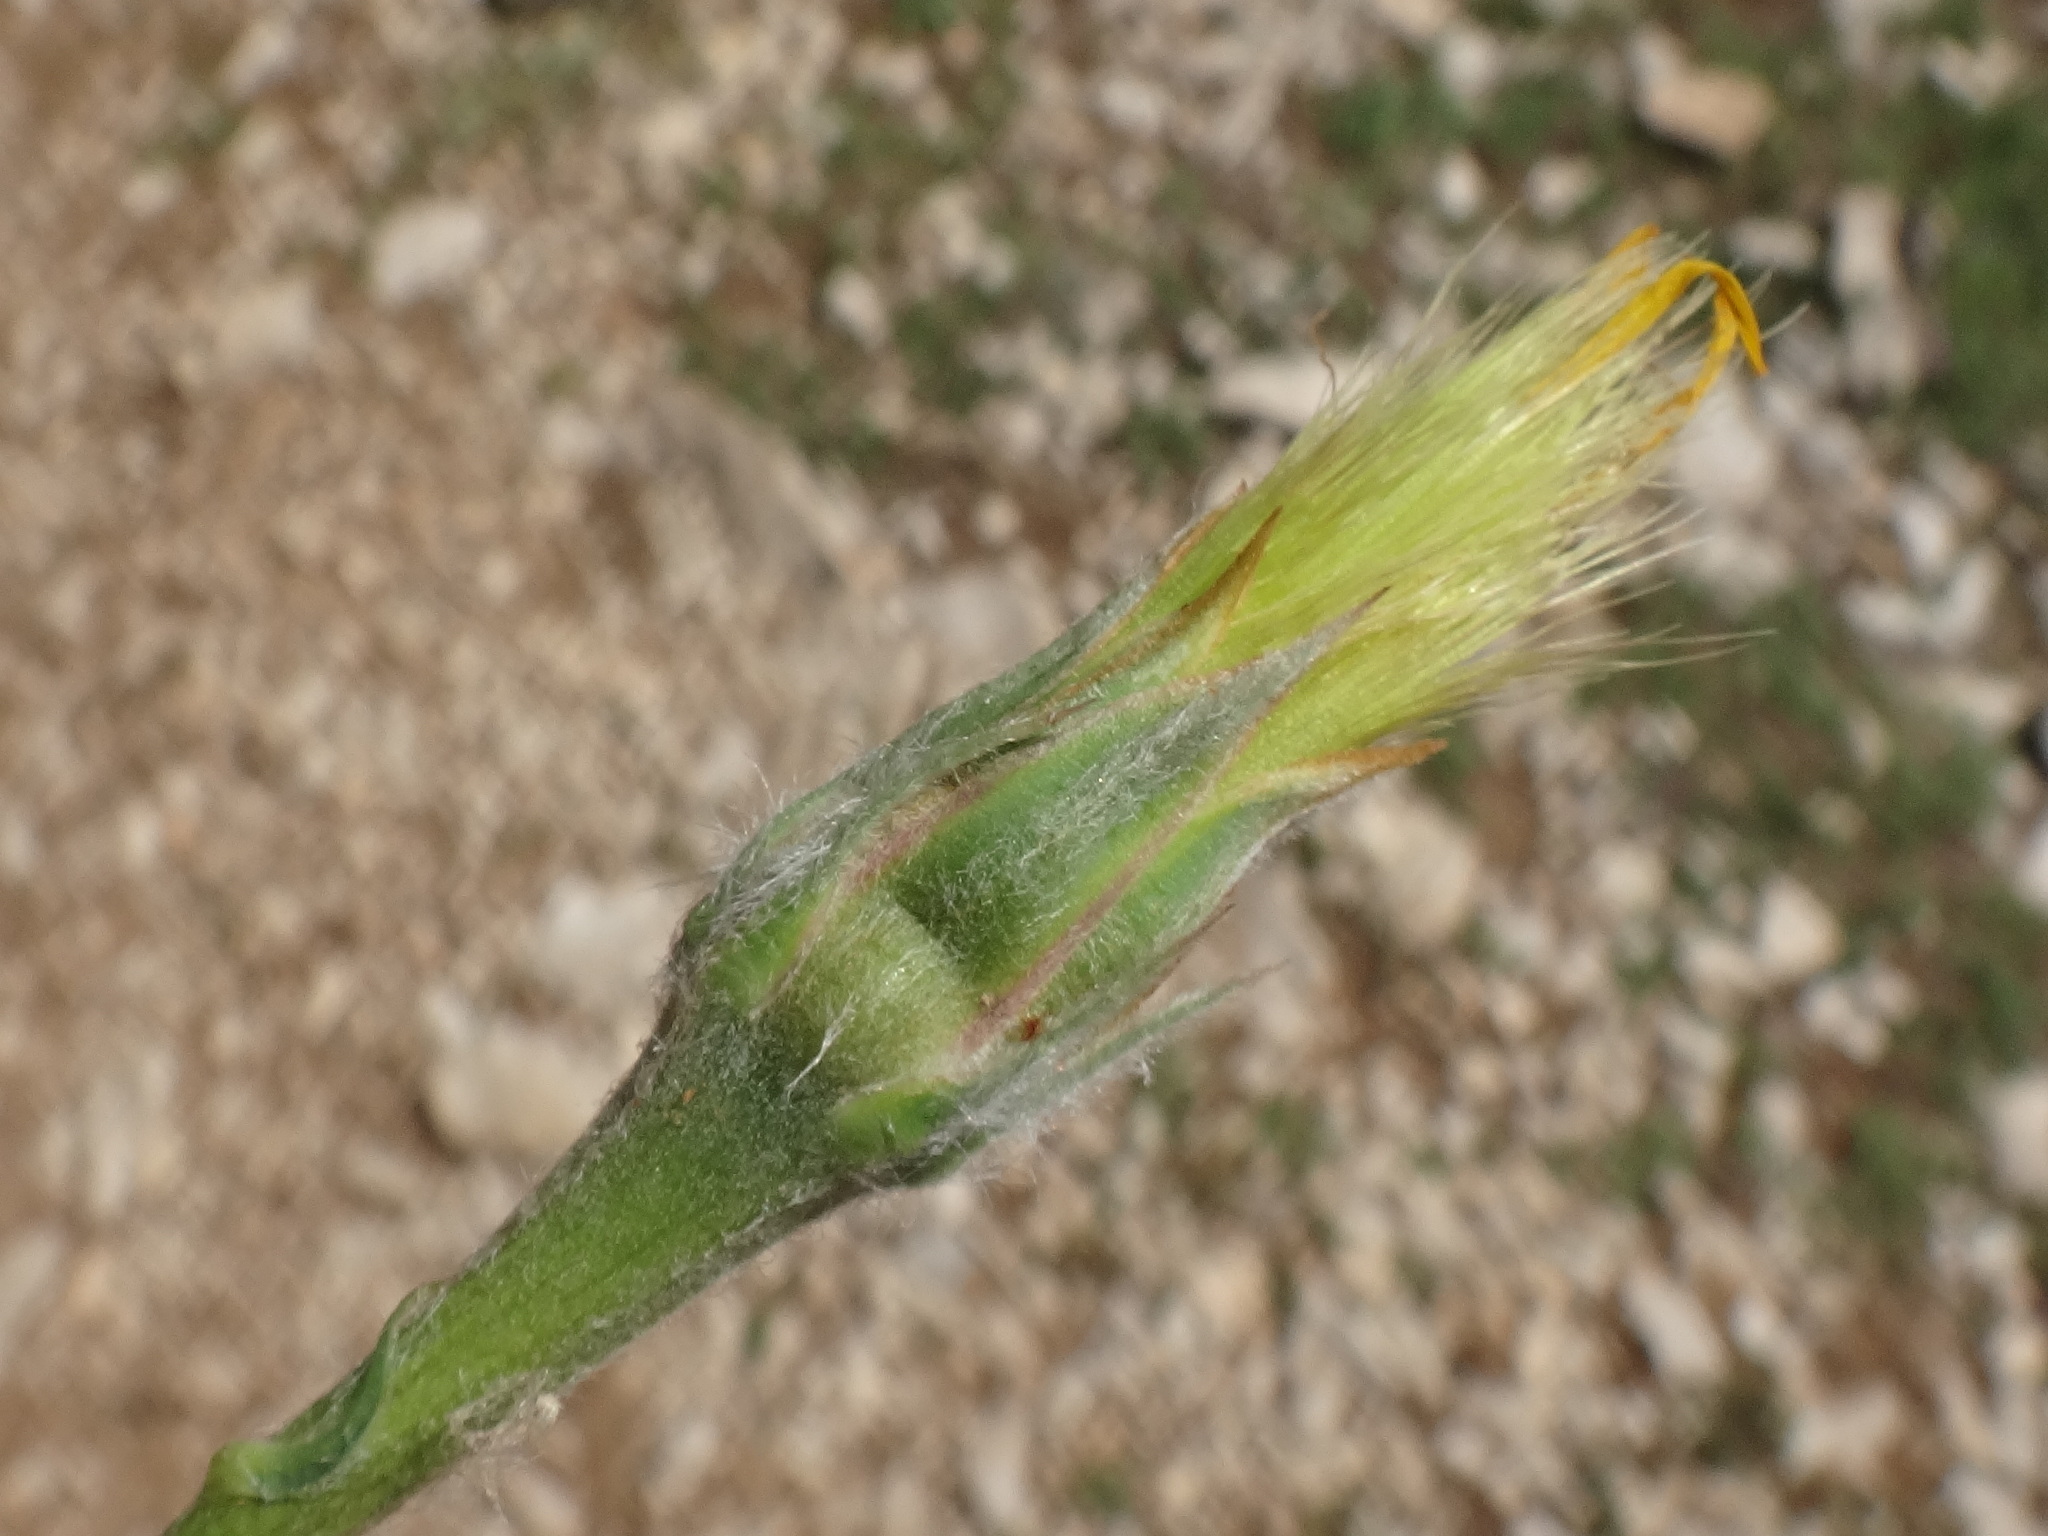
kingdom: Plantae
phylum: Tracheophyta
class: Magnoliopsida
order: Asterales
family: Asteraceae
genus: Gelasia
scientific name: Gelasia villosa
